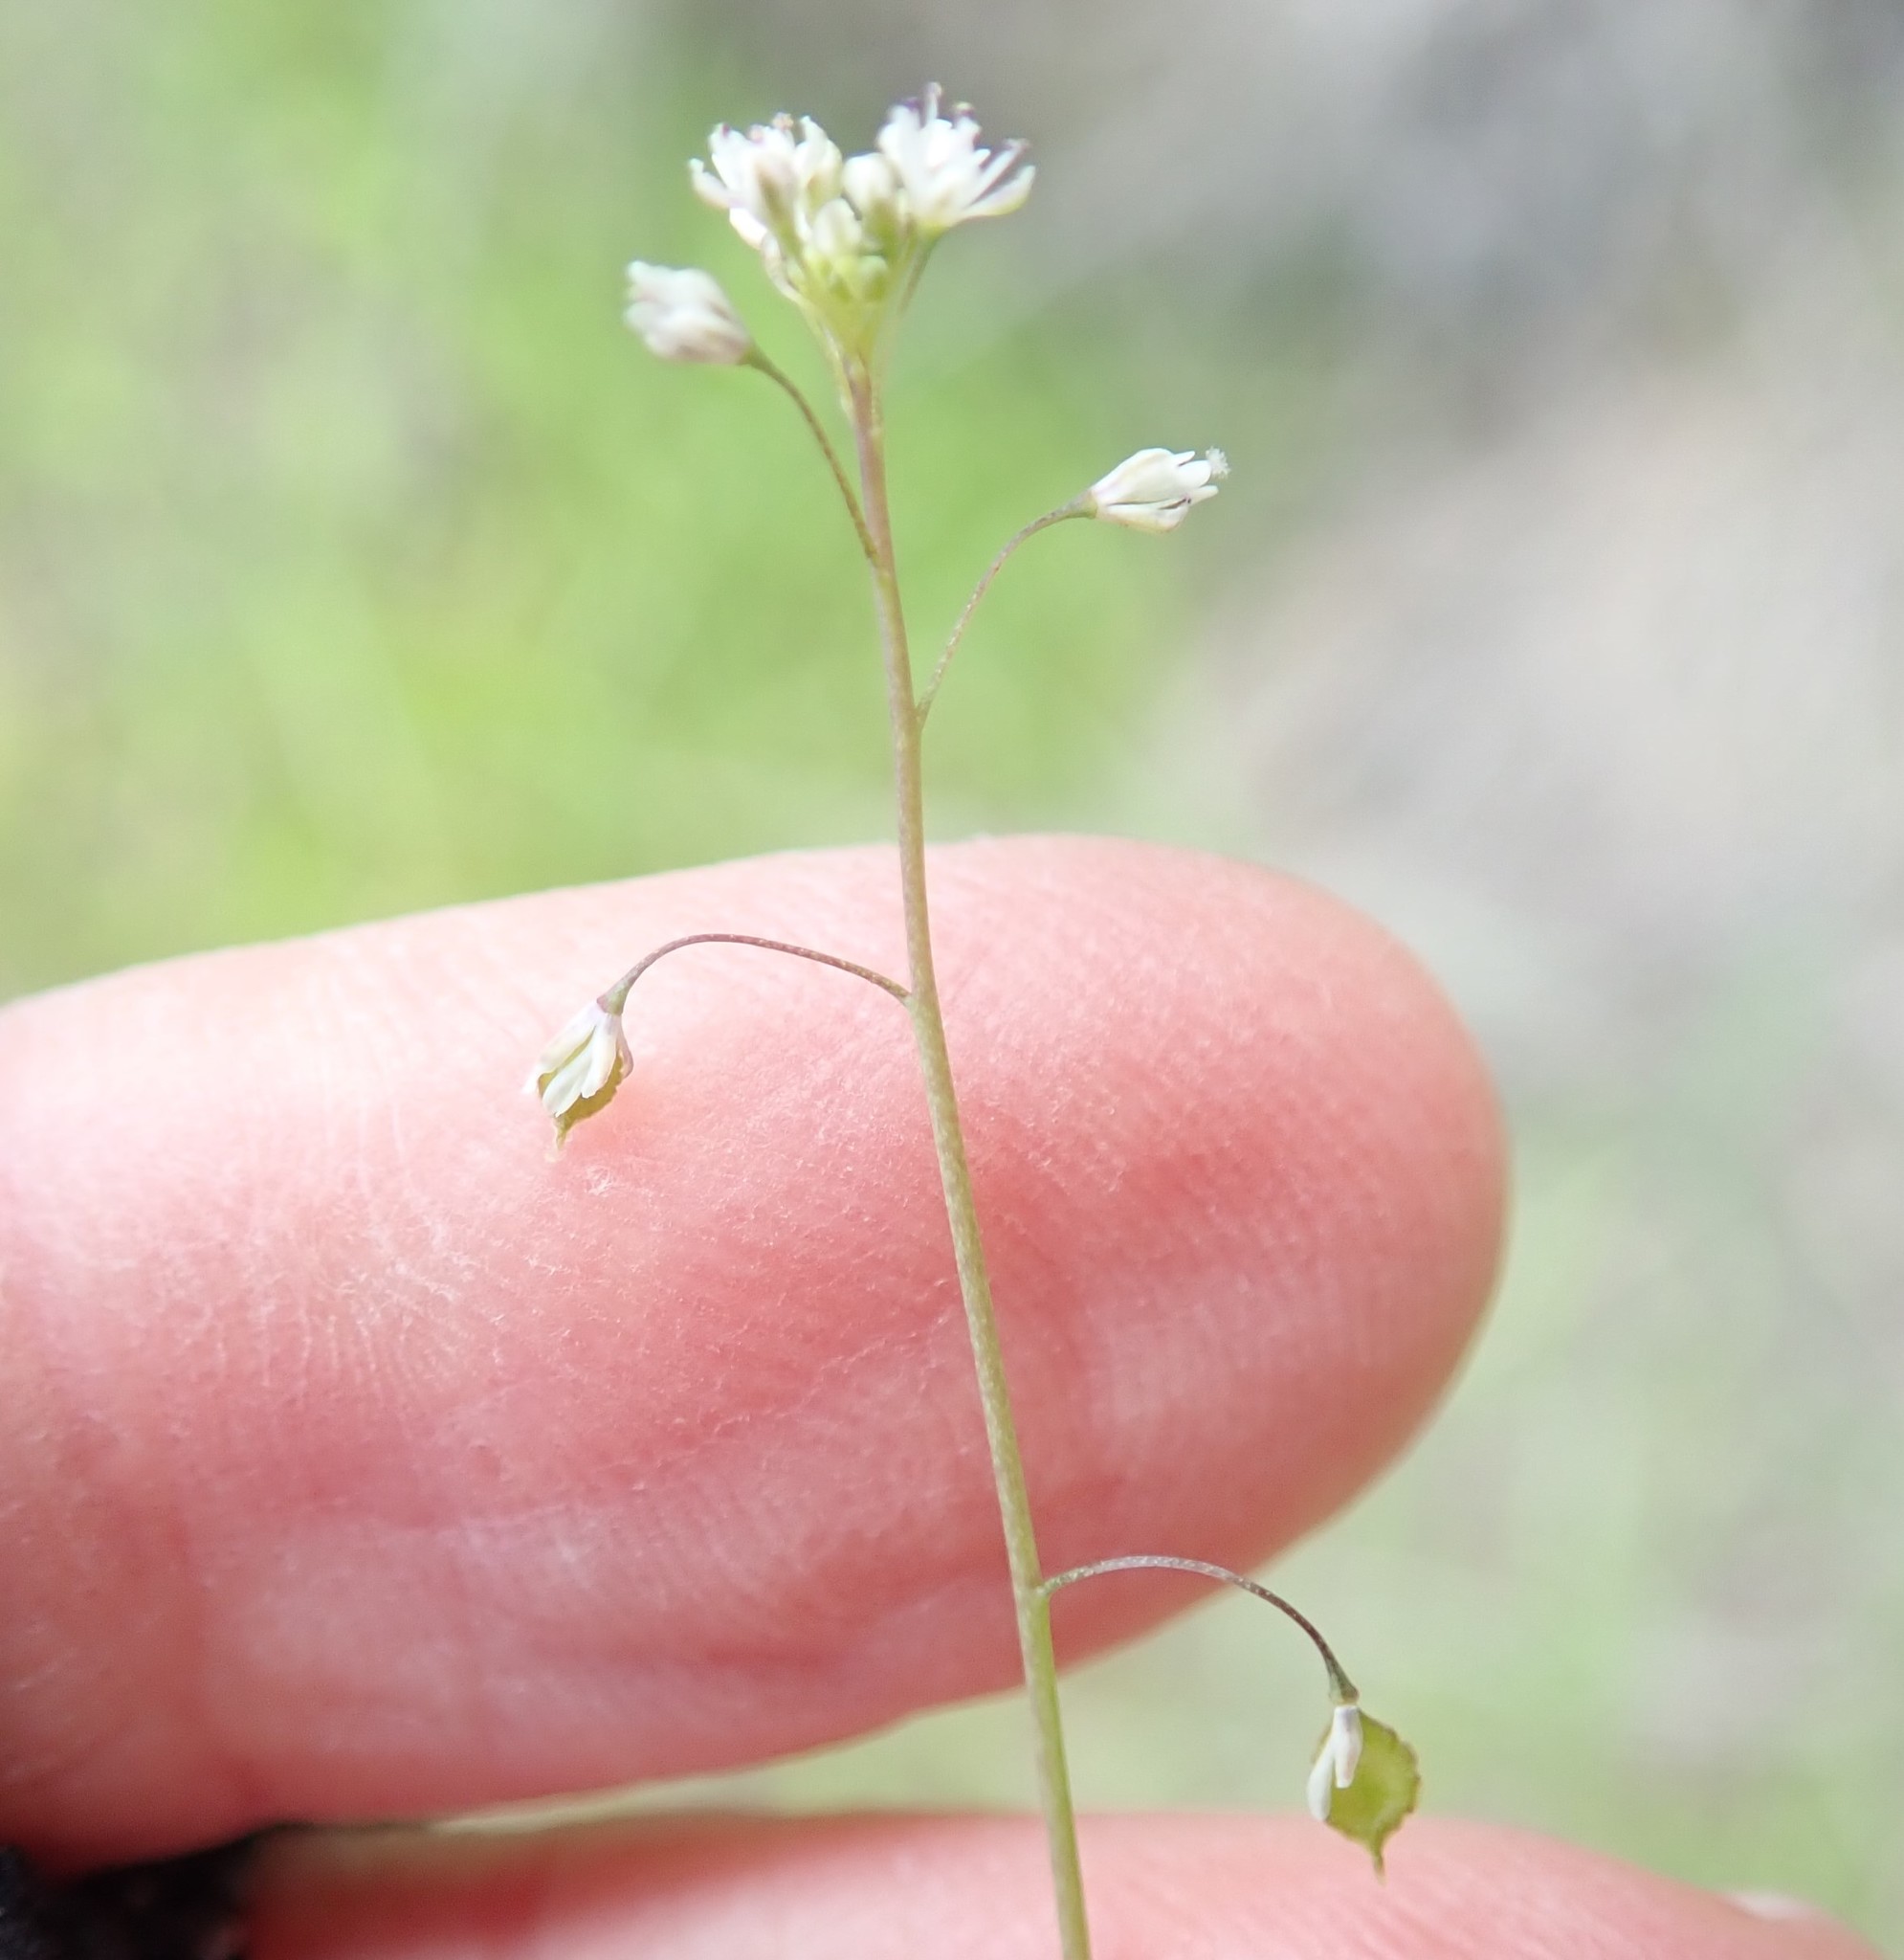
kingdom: Plantae
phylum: Tracheophyta
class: Magnoliopsida
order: Brassicales
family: Brassicaceae
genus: Thysanocarpus
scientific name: Thysanocarpus laciniatus
